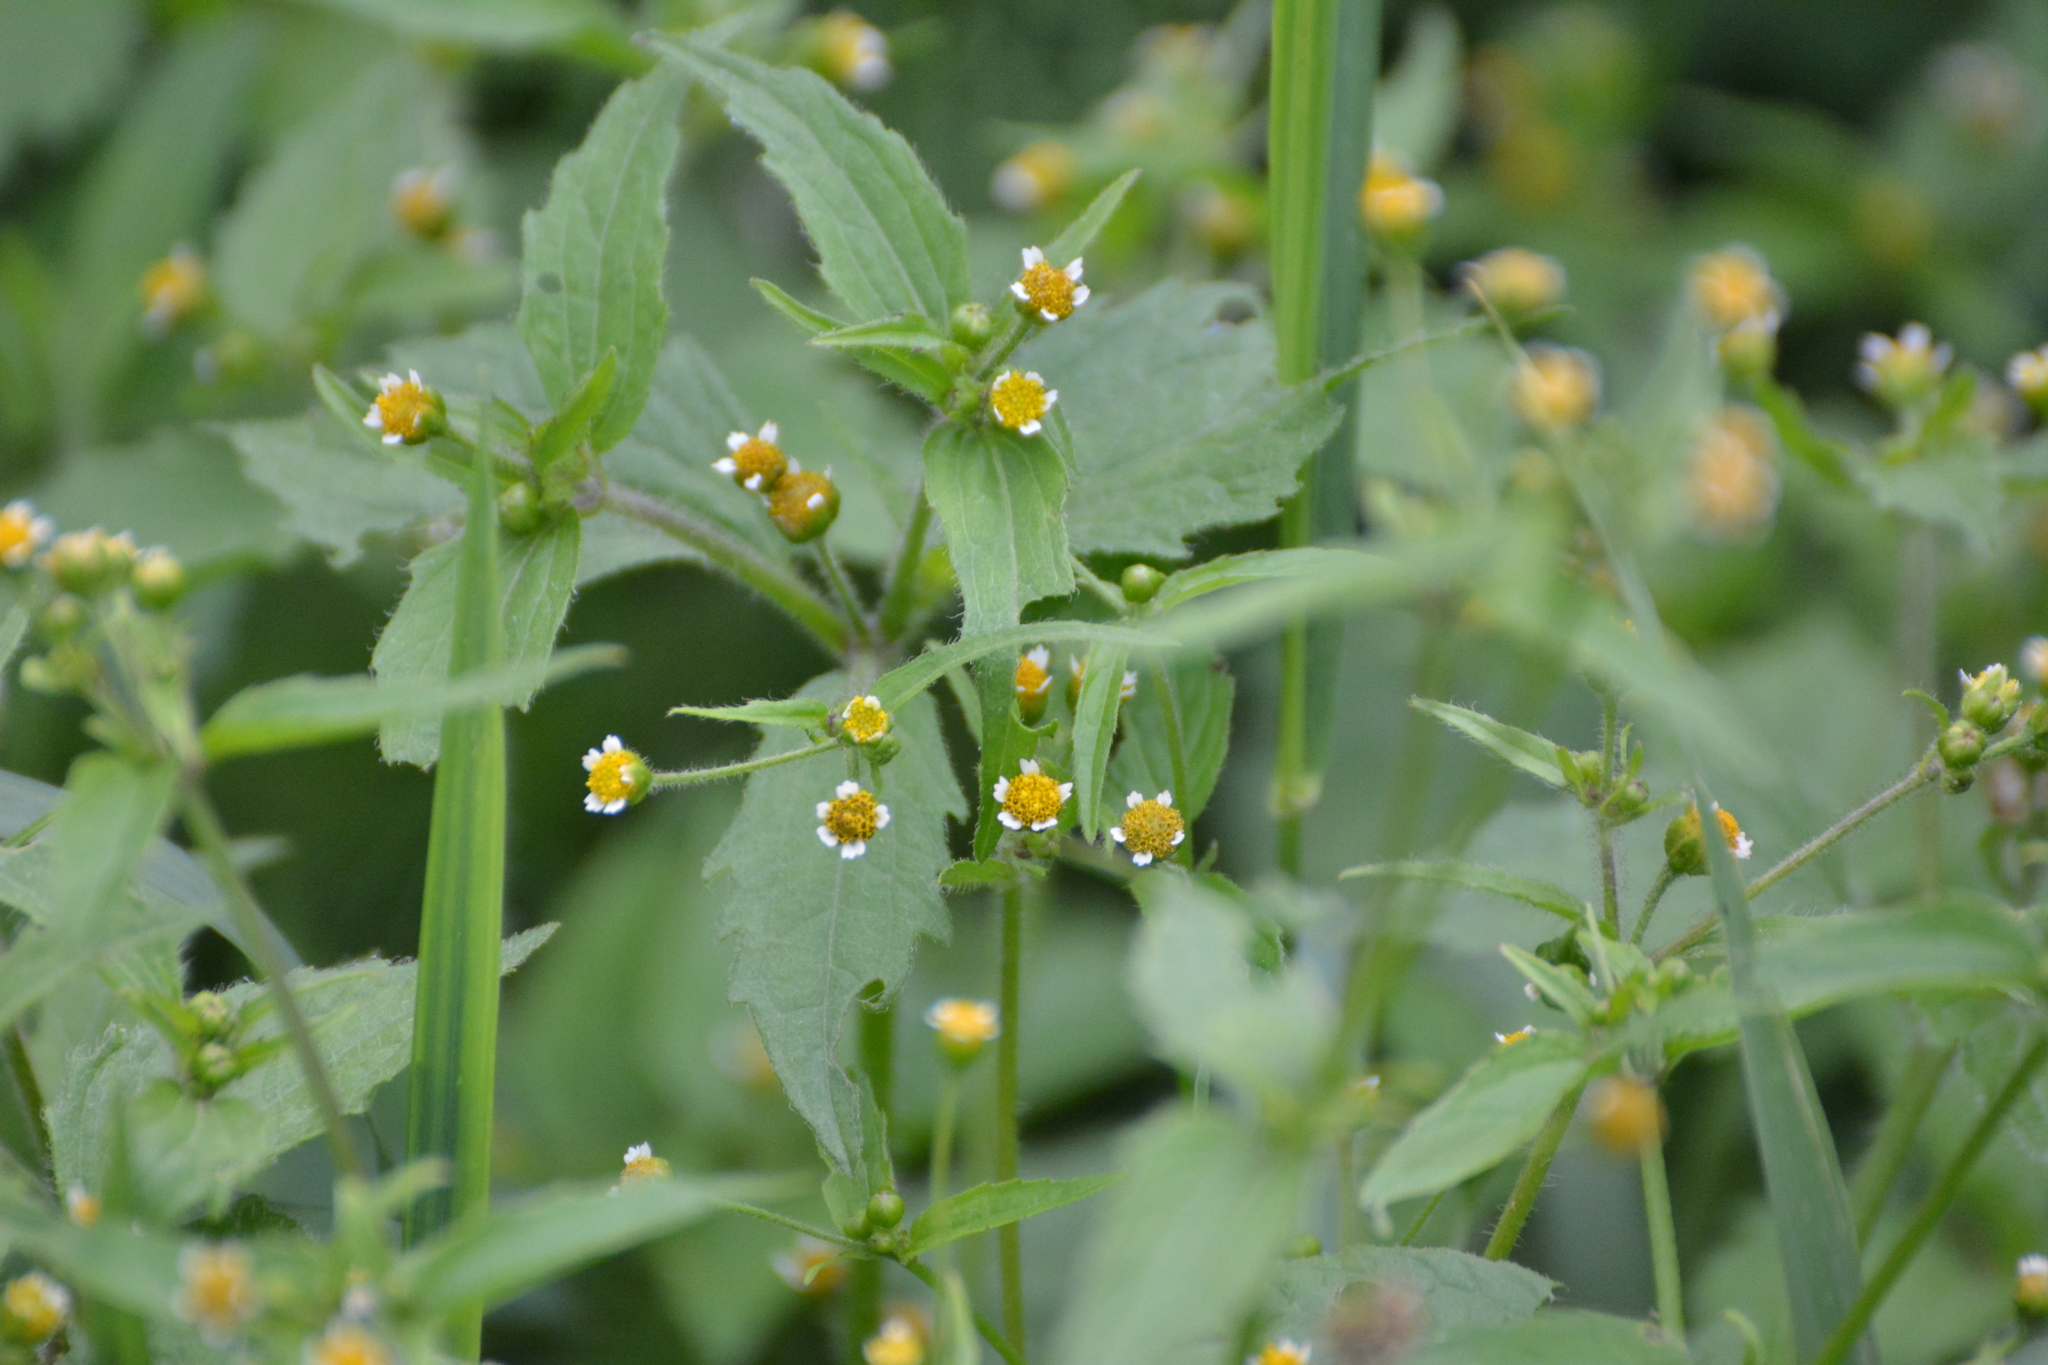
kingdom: Plantae
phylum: Tracheophyta
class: Magnoliopsida
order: Asterales
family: Asteraceae
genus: Galinsoga
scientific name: Galinsoga parviflora
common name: Gallant soldier
